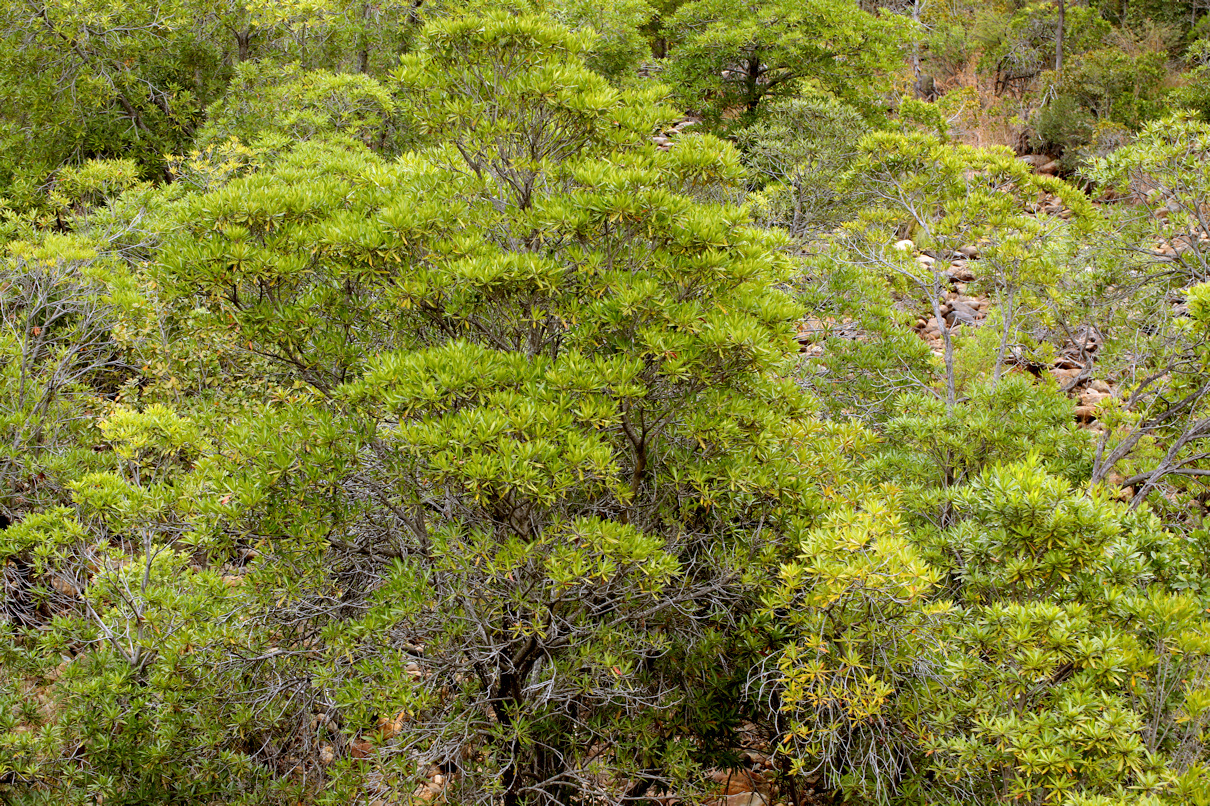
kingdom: Plantae
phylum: Tracheophyta
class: Magnoliopsida
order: Gentianales
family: Rubiaceae
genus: Breonadia
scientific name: Breonadia salicina
